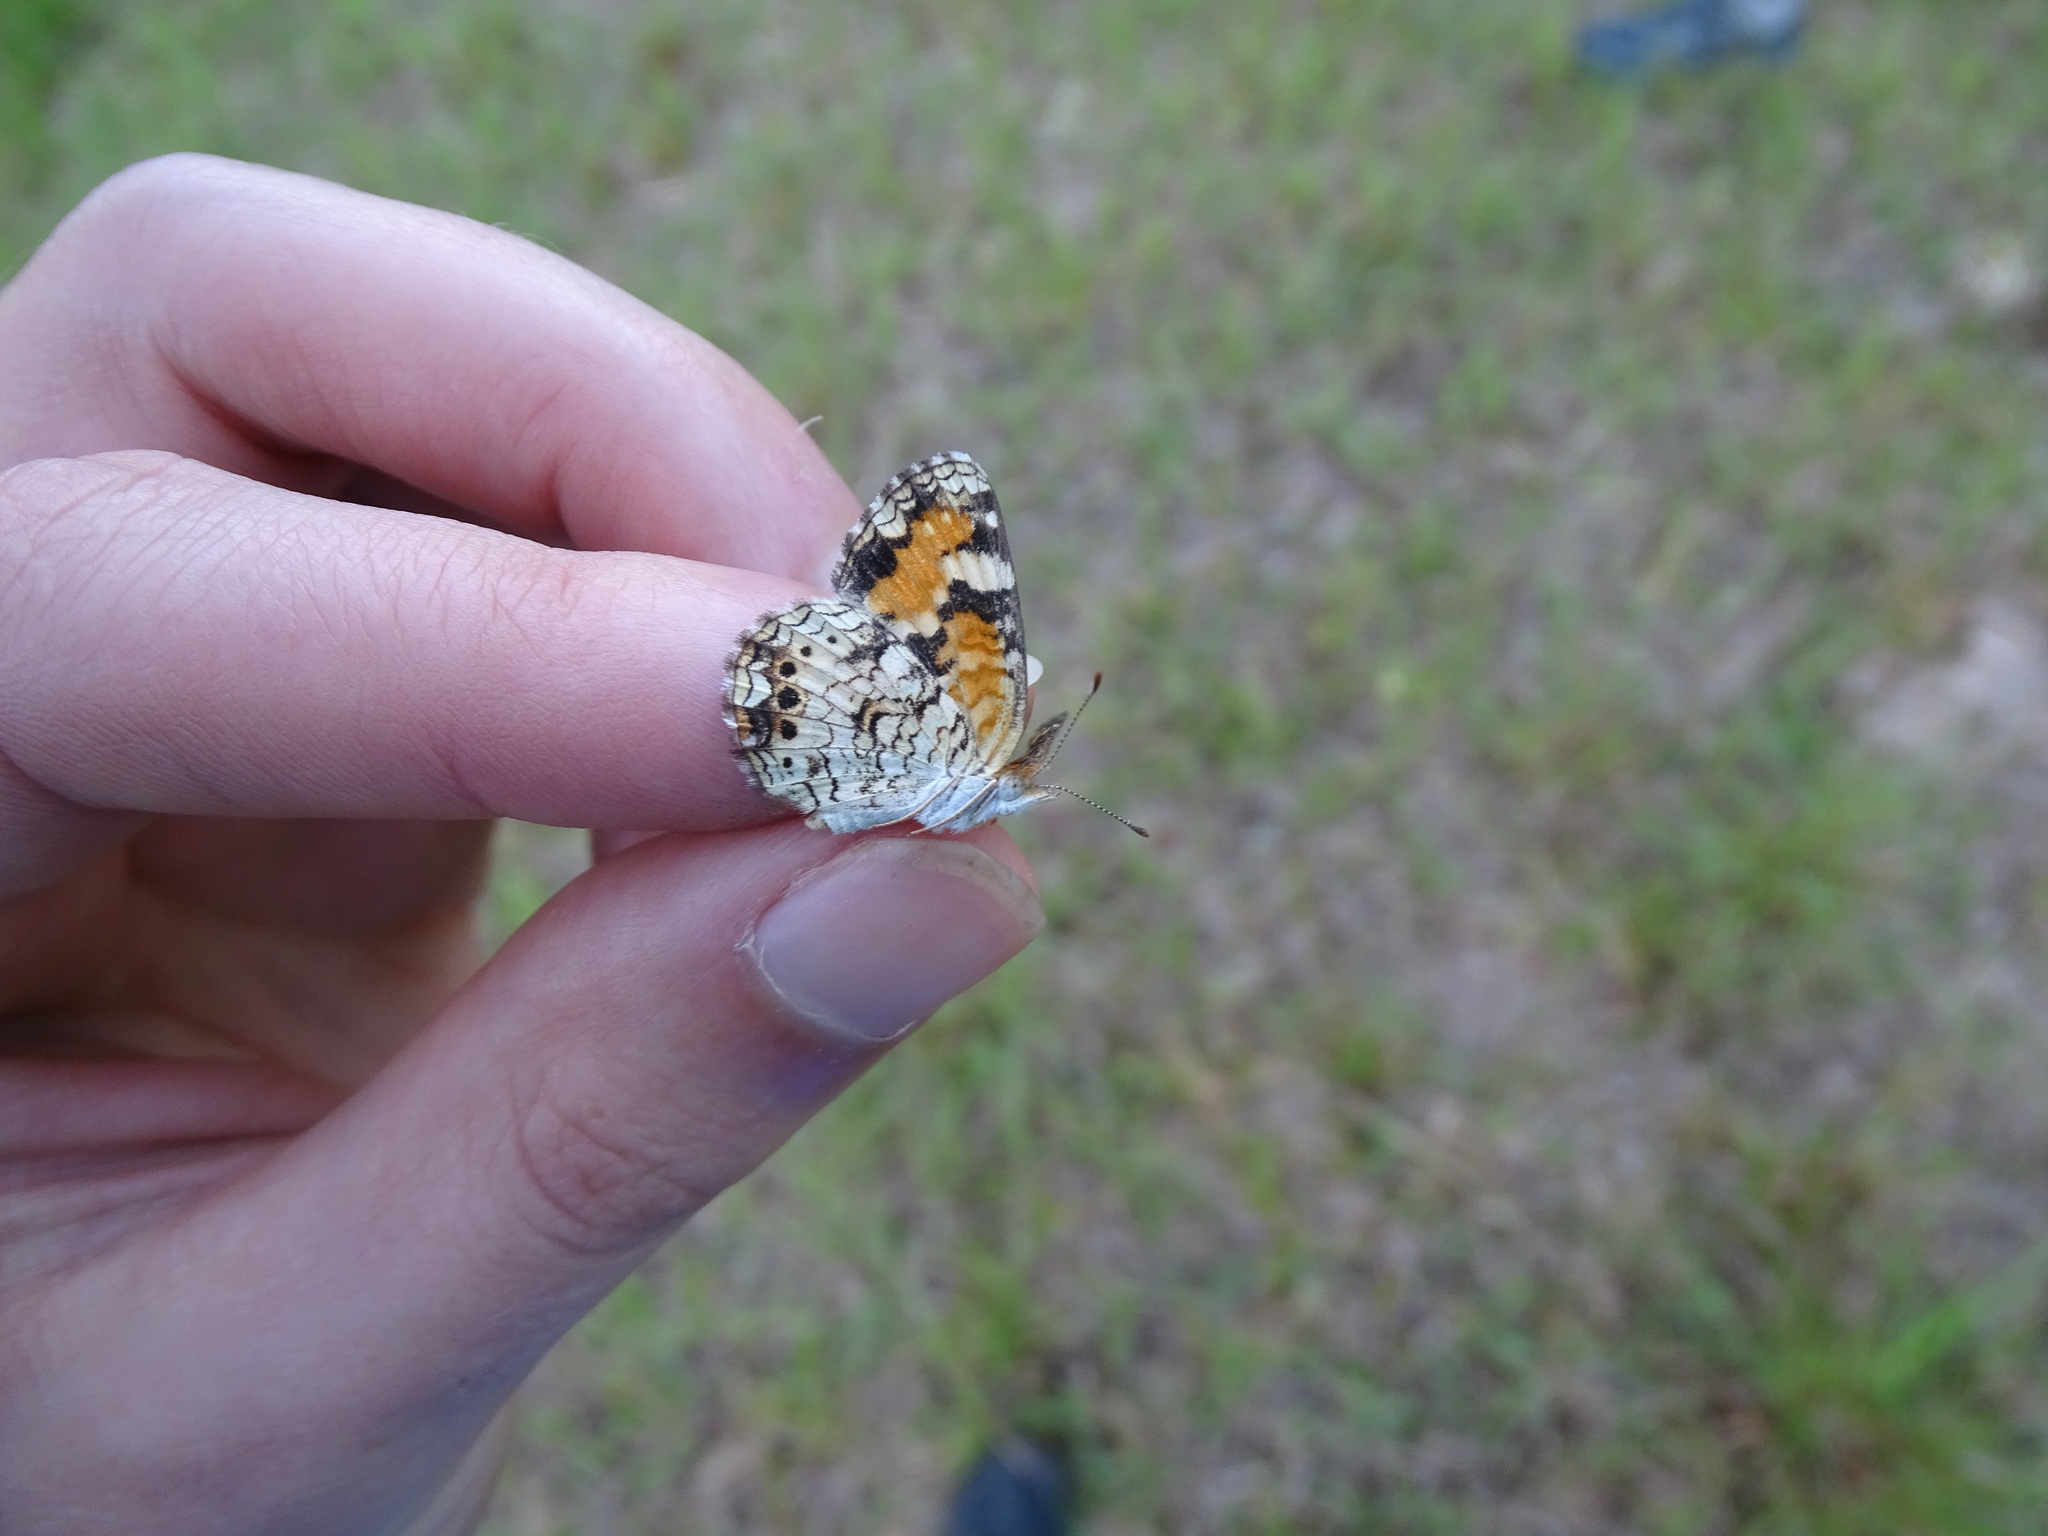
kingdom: Animalia
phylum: Arthropoda
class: Insecta
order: Lepidoptera
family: Nymphalidae
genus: Phyciodes
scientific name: Phyciodes phaon
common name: Phaon crescent
